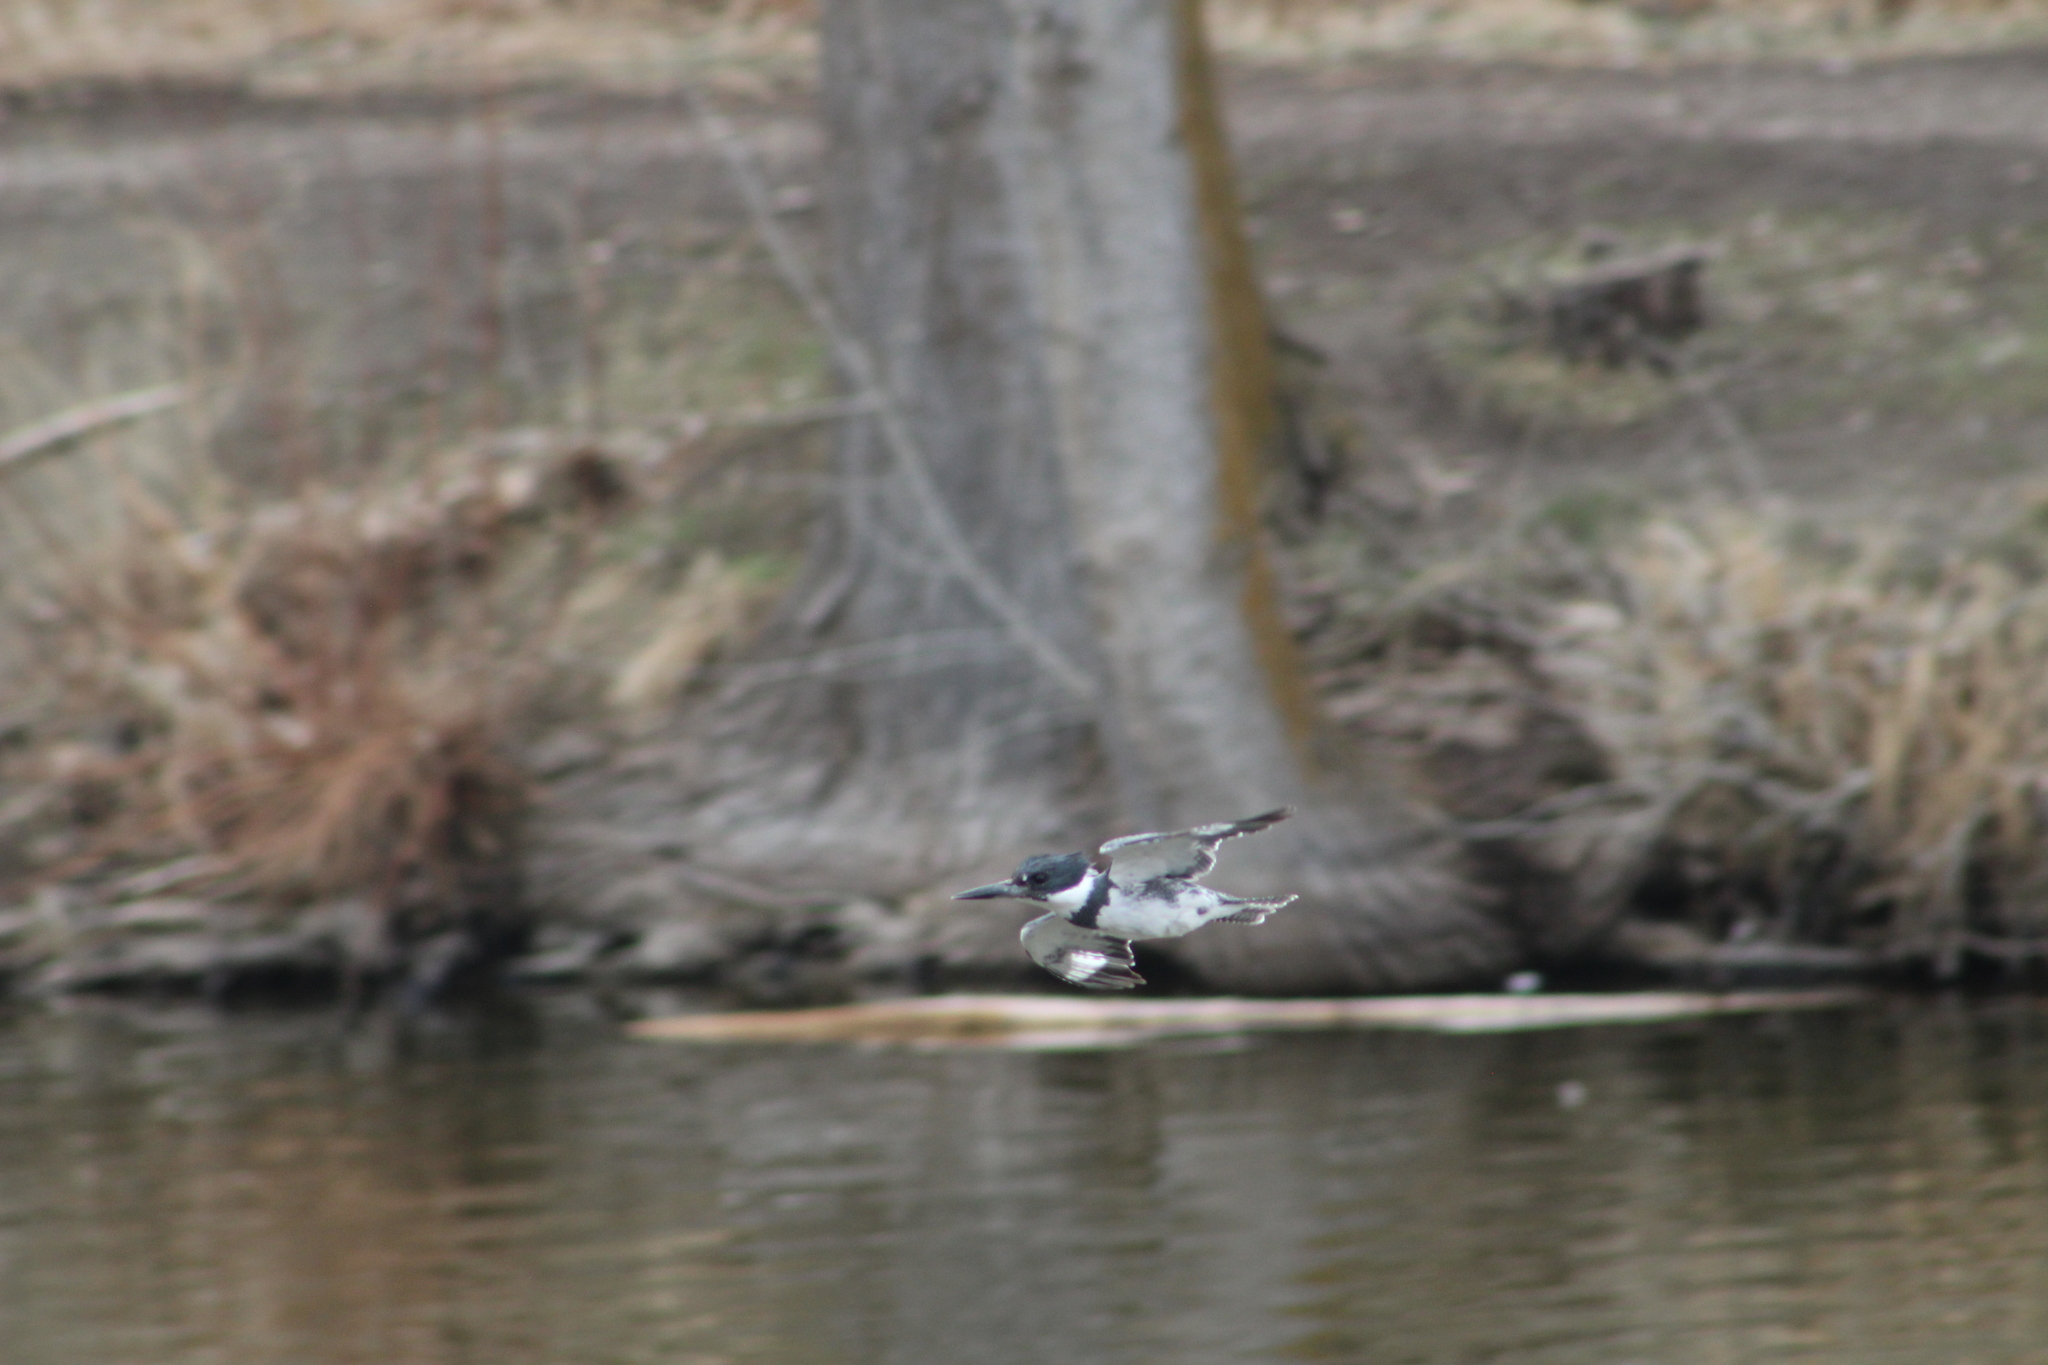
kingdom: Animalia
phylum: Chordata
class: Aves
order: Coraciiformes
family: Alcedinidae
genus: Megaceryle
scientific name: Megaceryle alcyon
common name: Belted kingfisher
